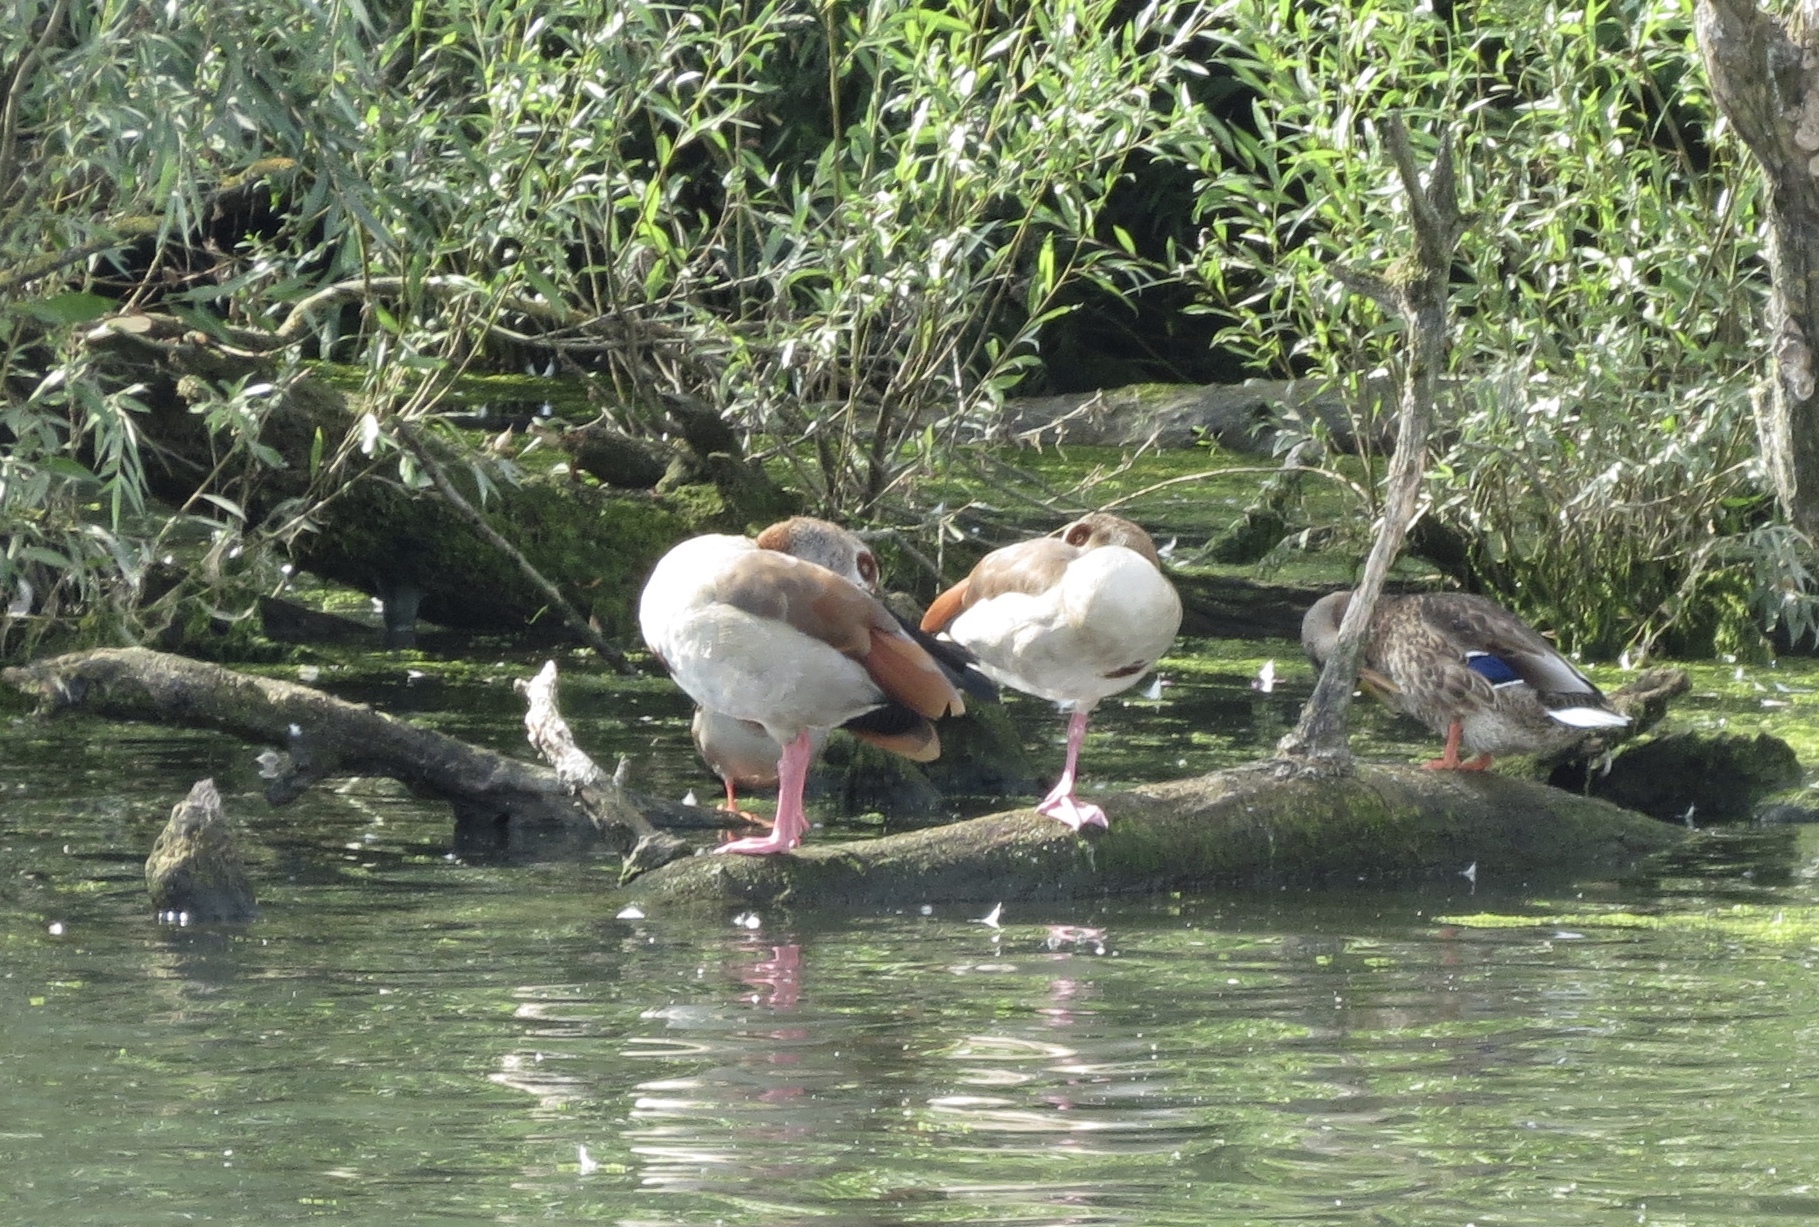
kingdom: Animalia
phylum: Chordata
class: Aves
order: Anseriformes
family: Anatidae
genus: Alopochen
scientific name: Alopochen aegyptiaca
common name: Egyptian goose
